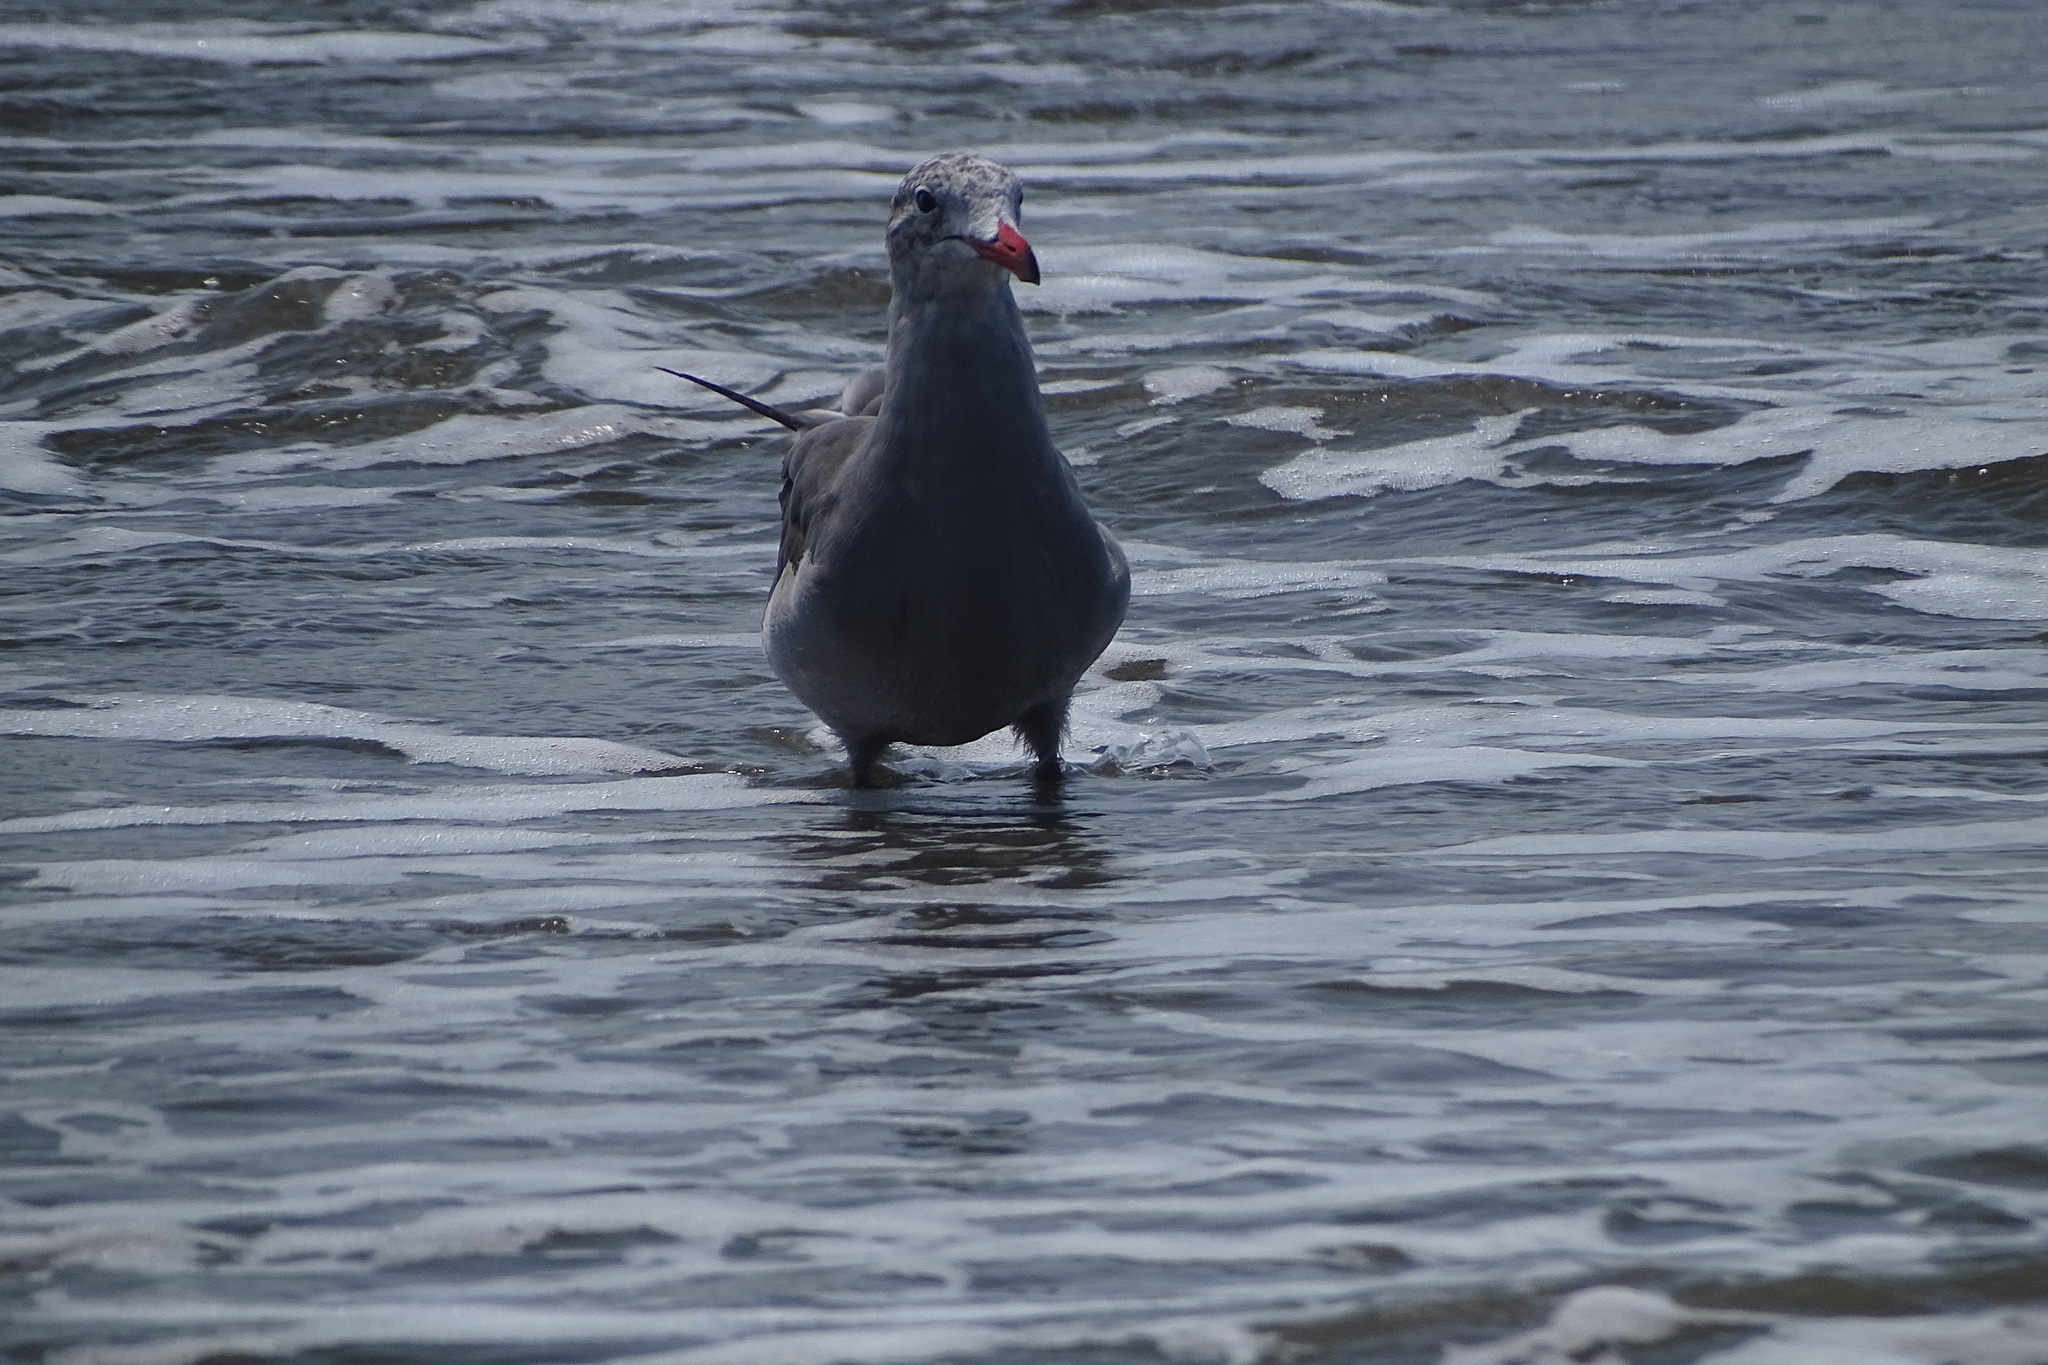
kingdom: Animalia
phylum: Chordata
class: Aves
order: Charadriiformes
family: Laridae
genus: Larus
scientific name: Larus heermanni
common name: Heermann's gull
